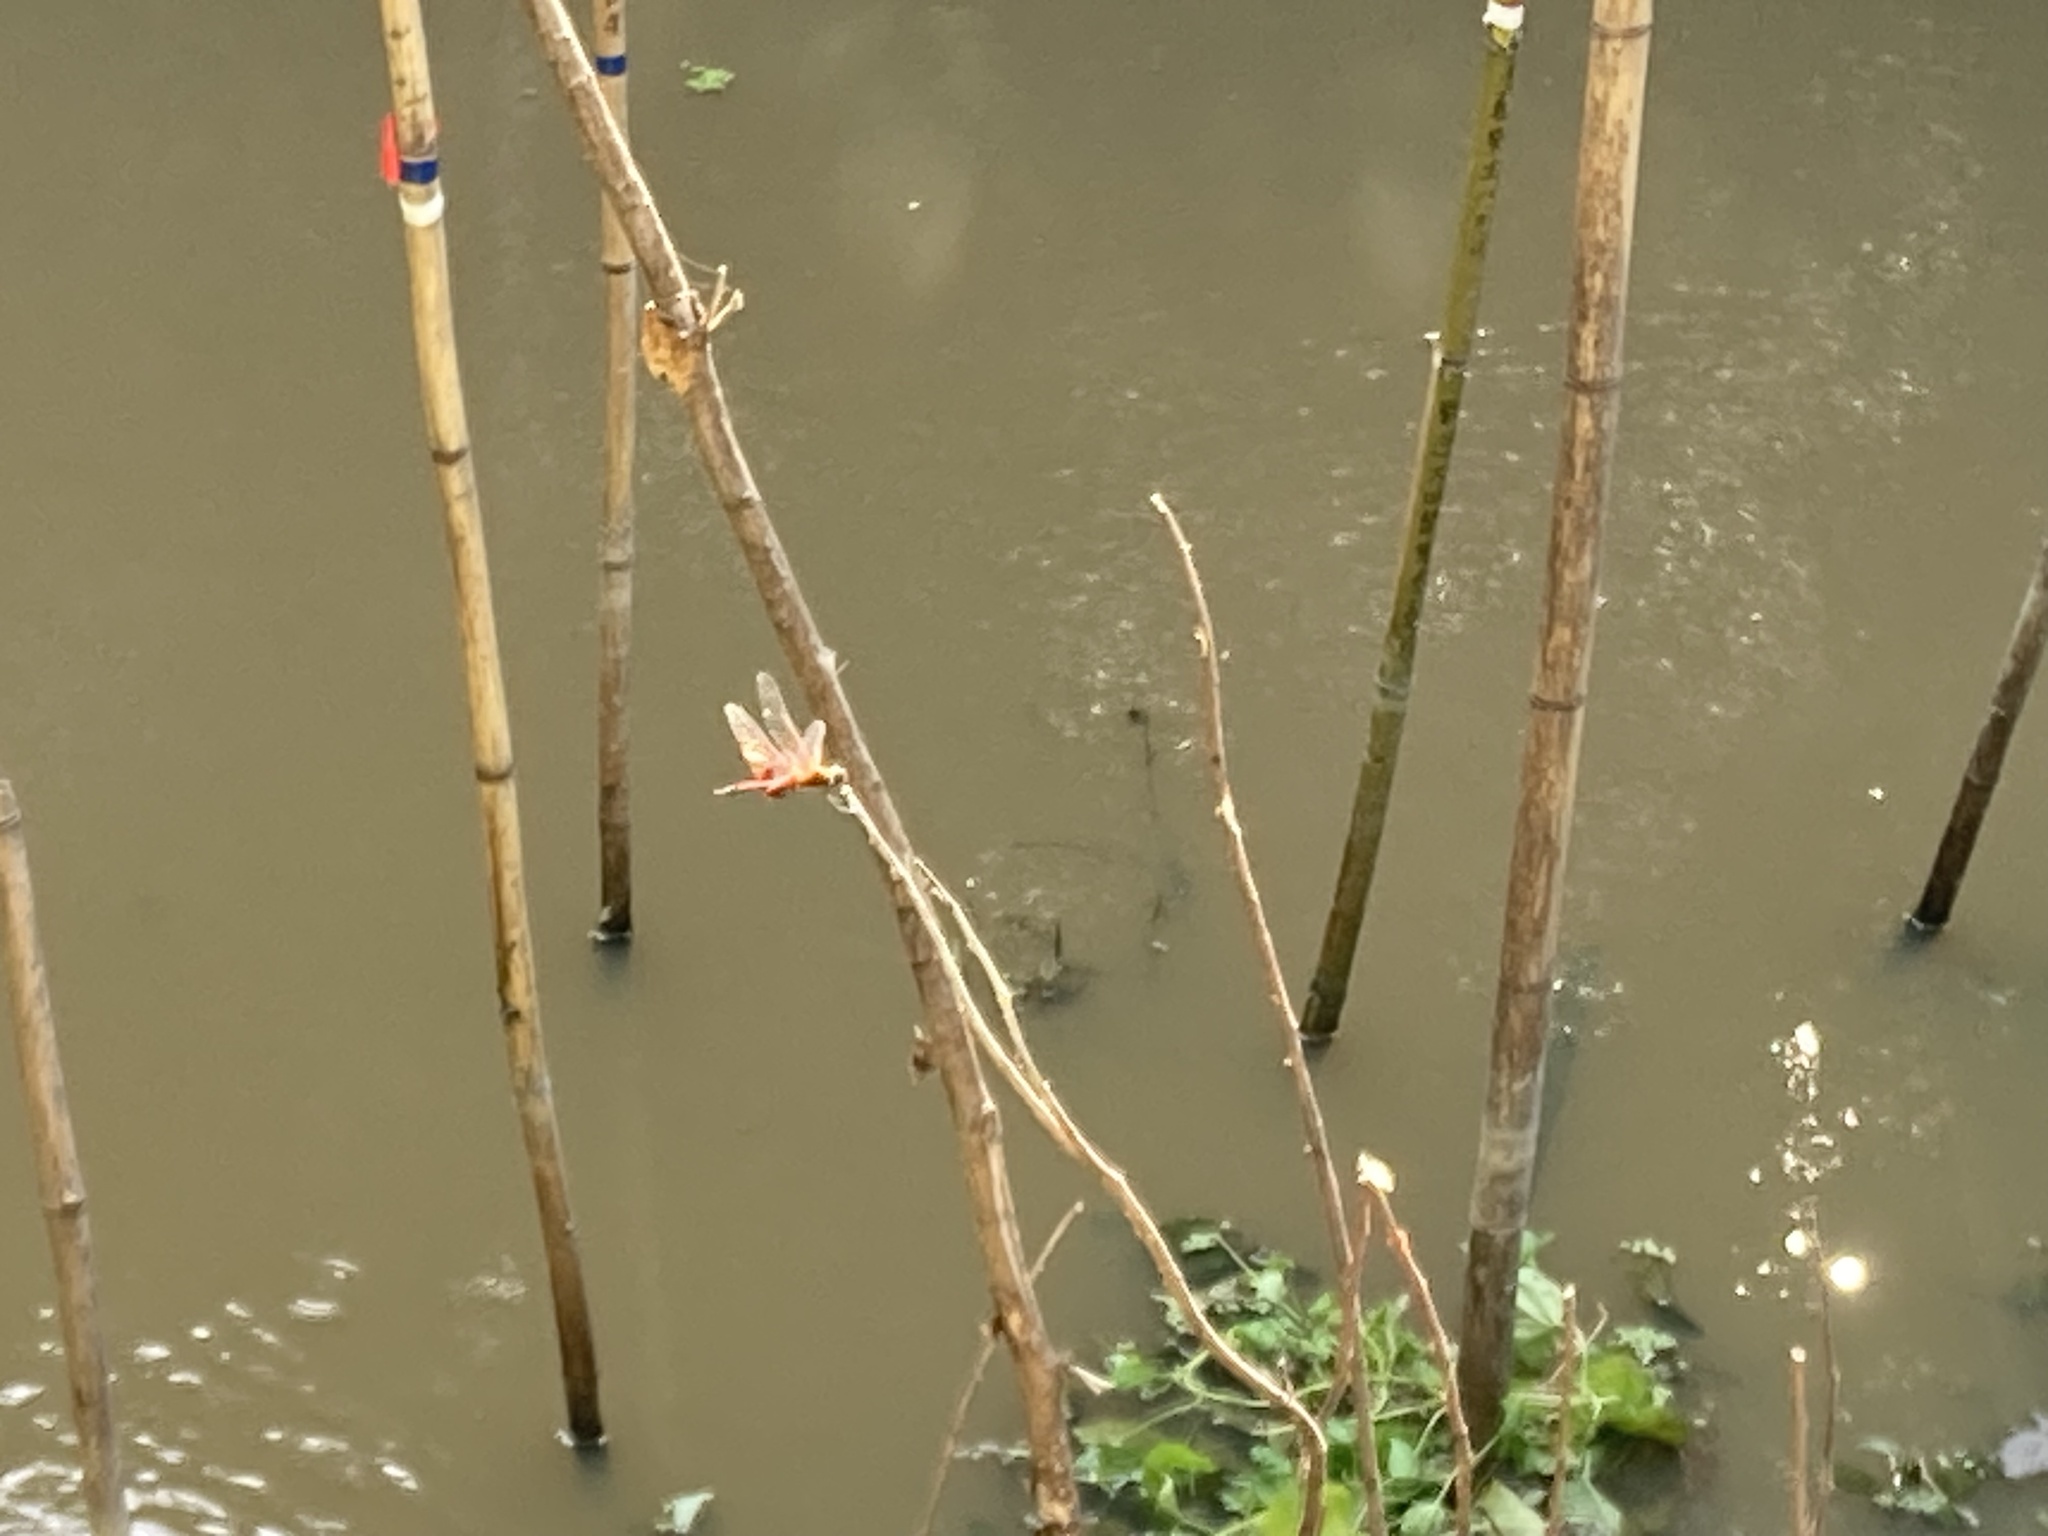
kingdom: Animalia
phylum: Arthropoda
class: Insecta
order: Odonata
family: Libellulidae
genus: Tramea
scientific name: Tramea virginia
